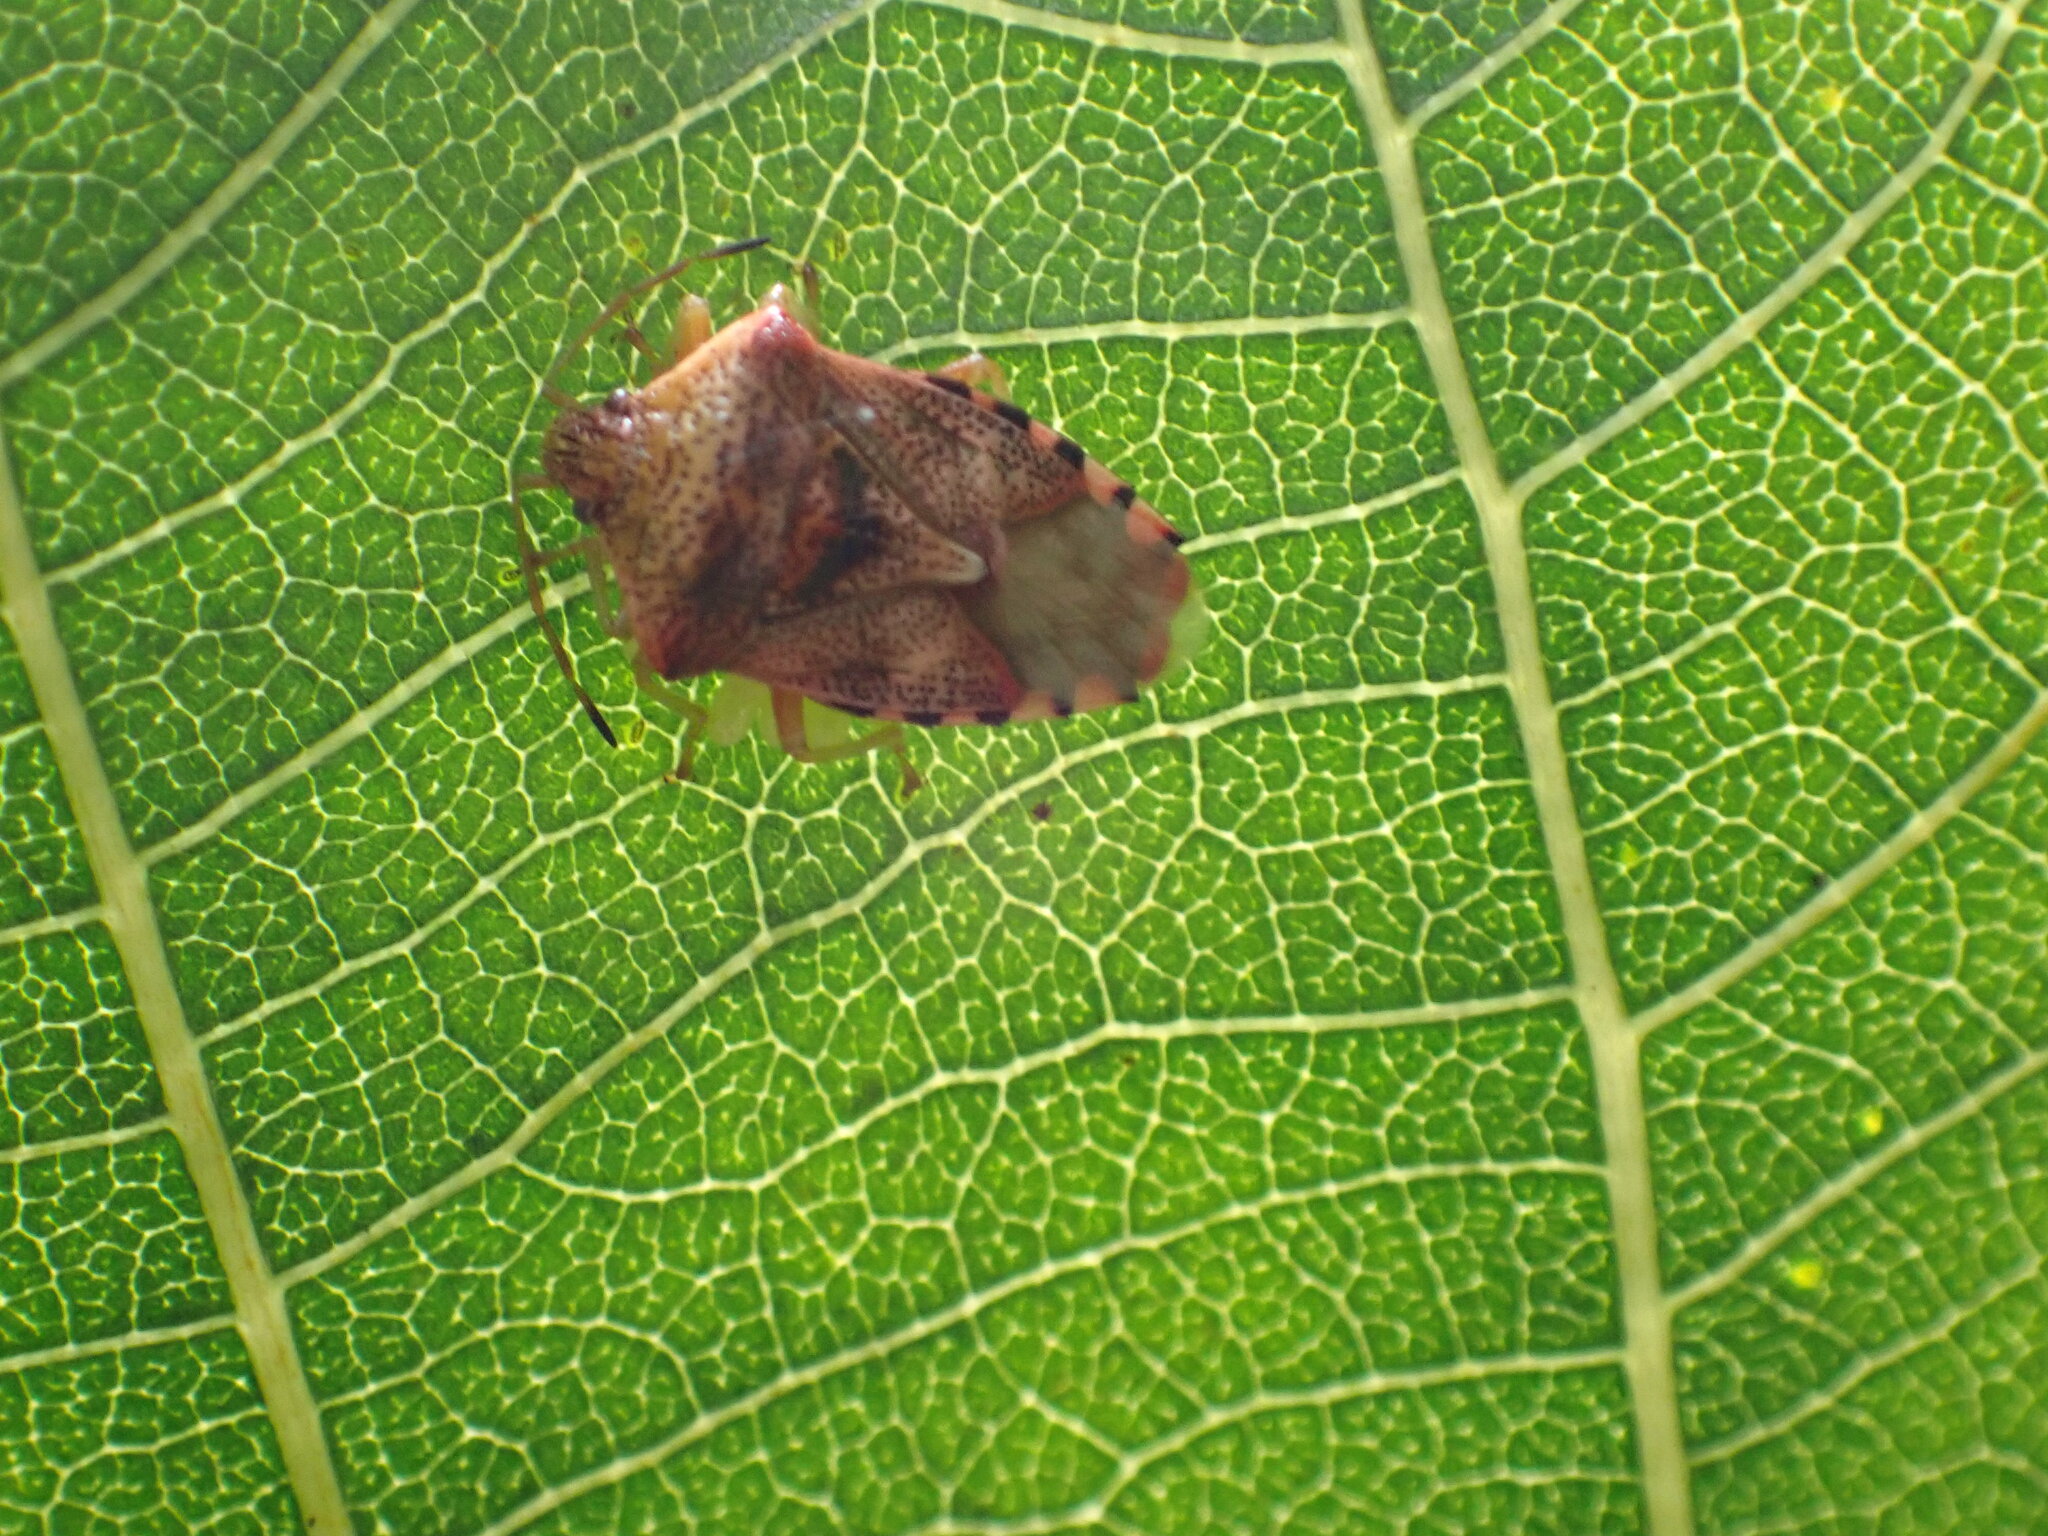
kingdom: Animalia
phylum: Arthropoda
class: Insecta
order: Hemiptera
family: Acanthosomatidae
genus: Elasmucha
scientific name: Elasmucha grisea
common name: Parent bug
